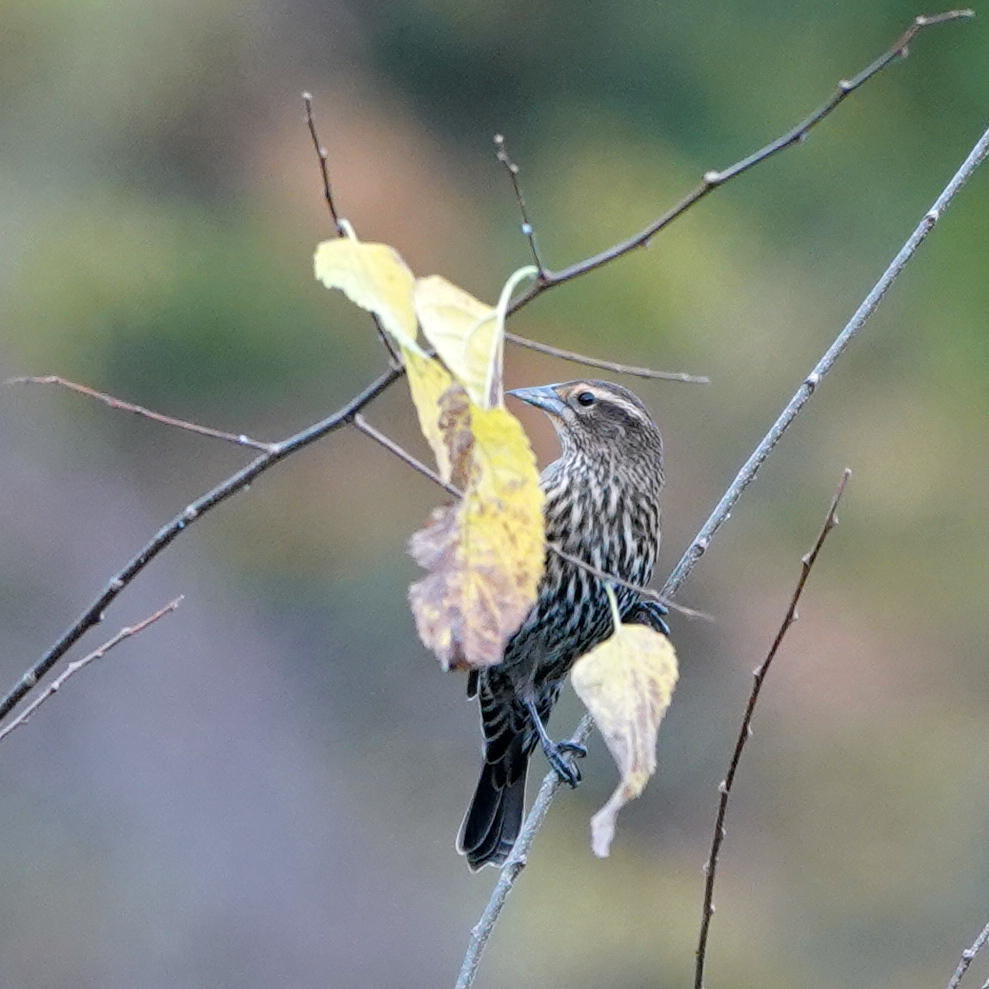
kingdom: Animalia
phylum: Chordata
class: Aves
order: Passeriformes
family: Icteridae
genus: Agelaius
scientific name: Agelaius phoeniceus
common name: Red-winged blackbird
